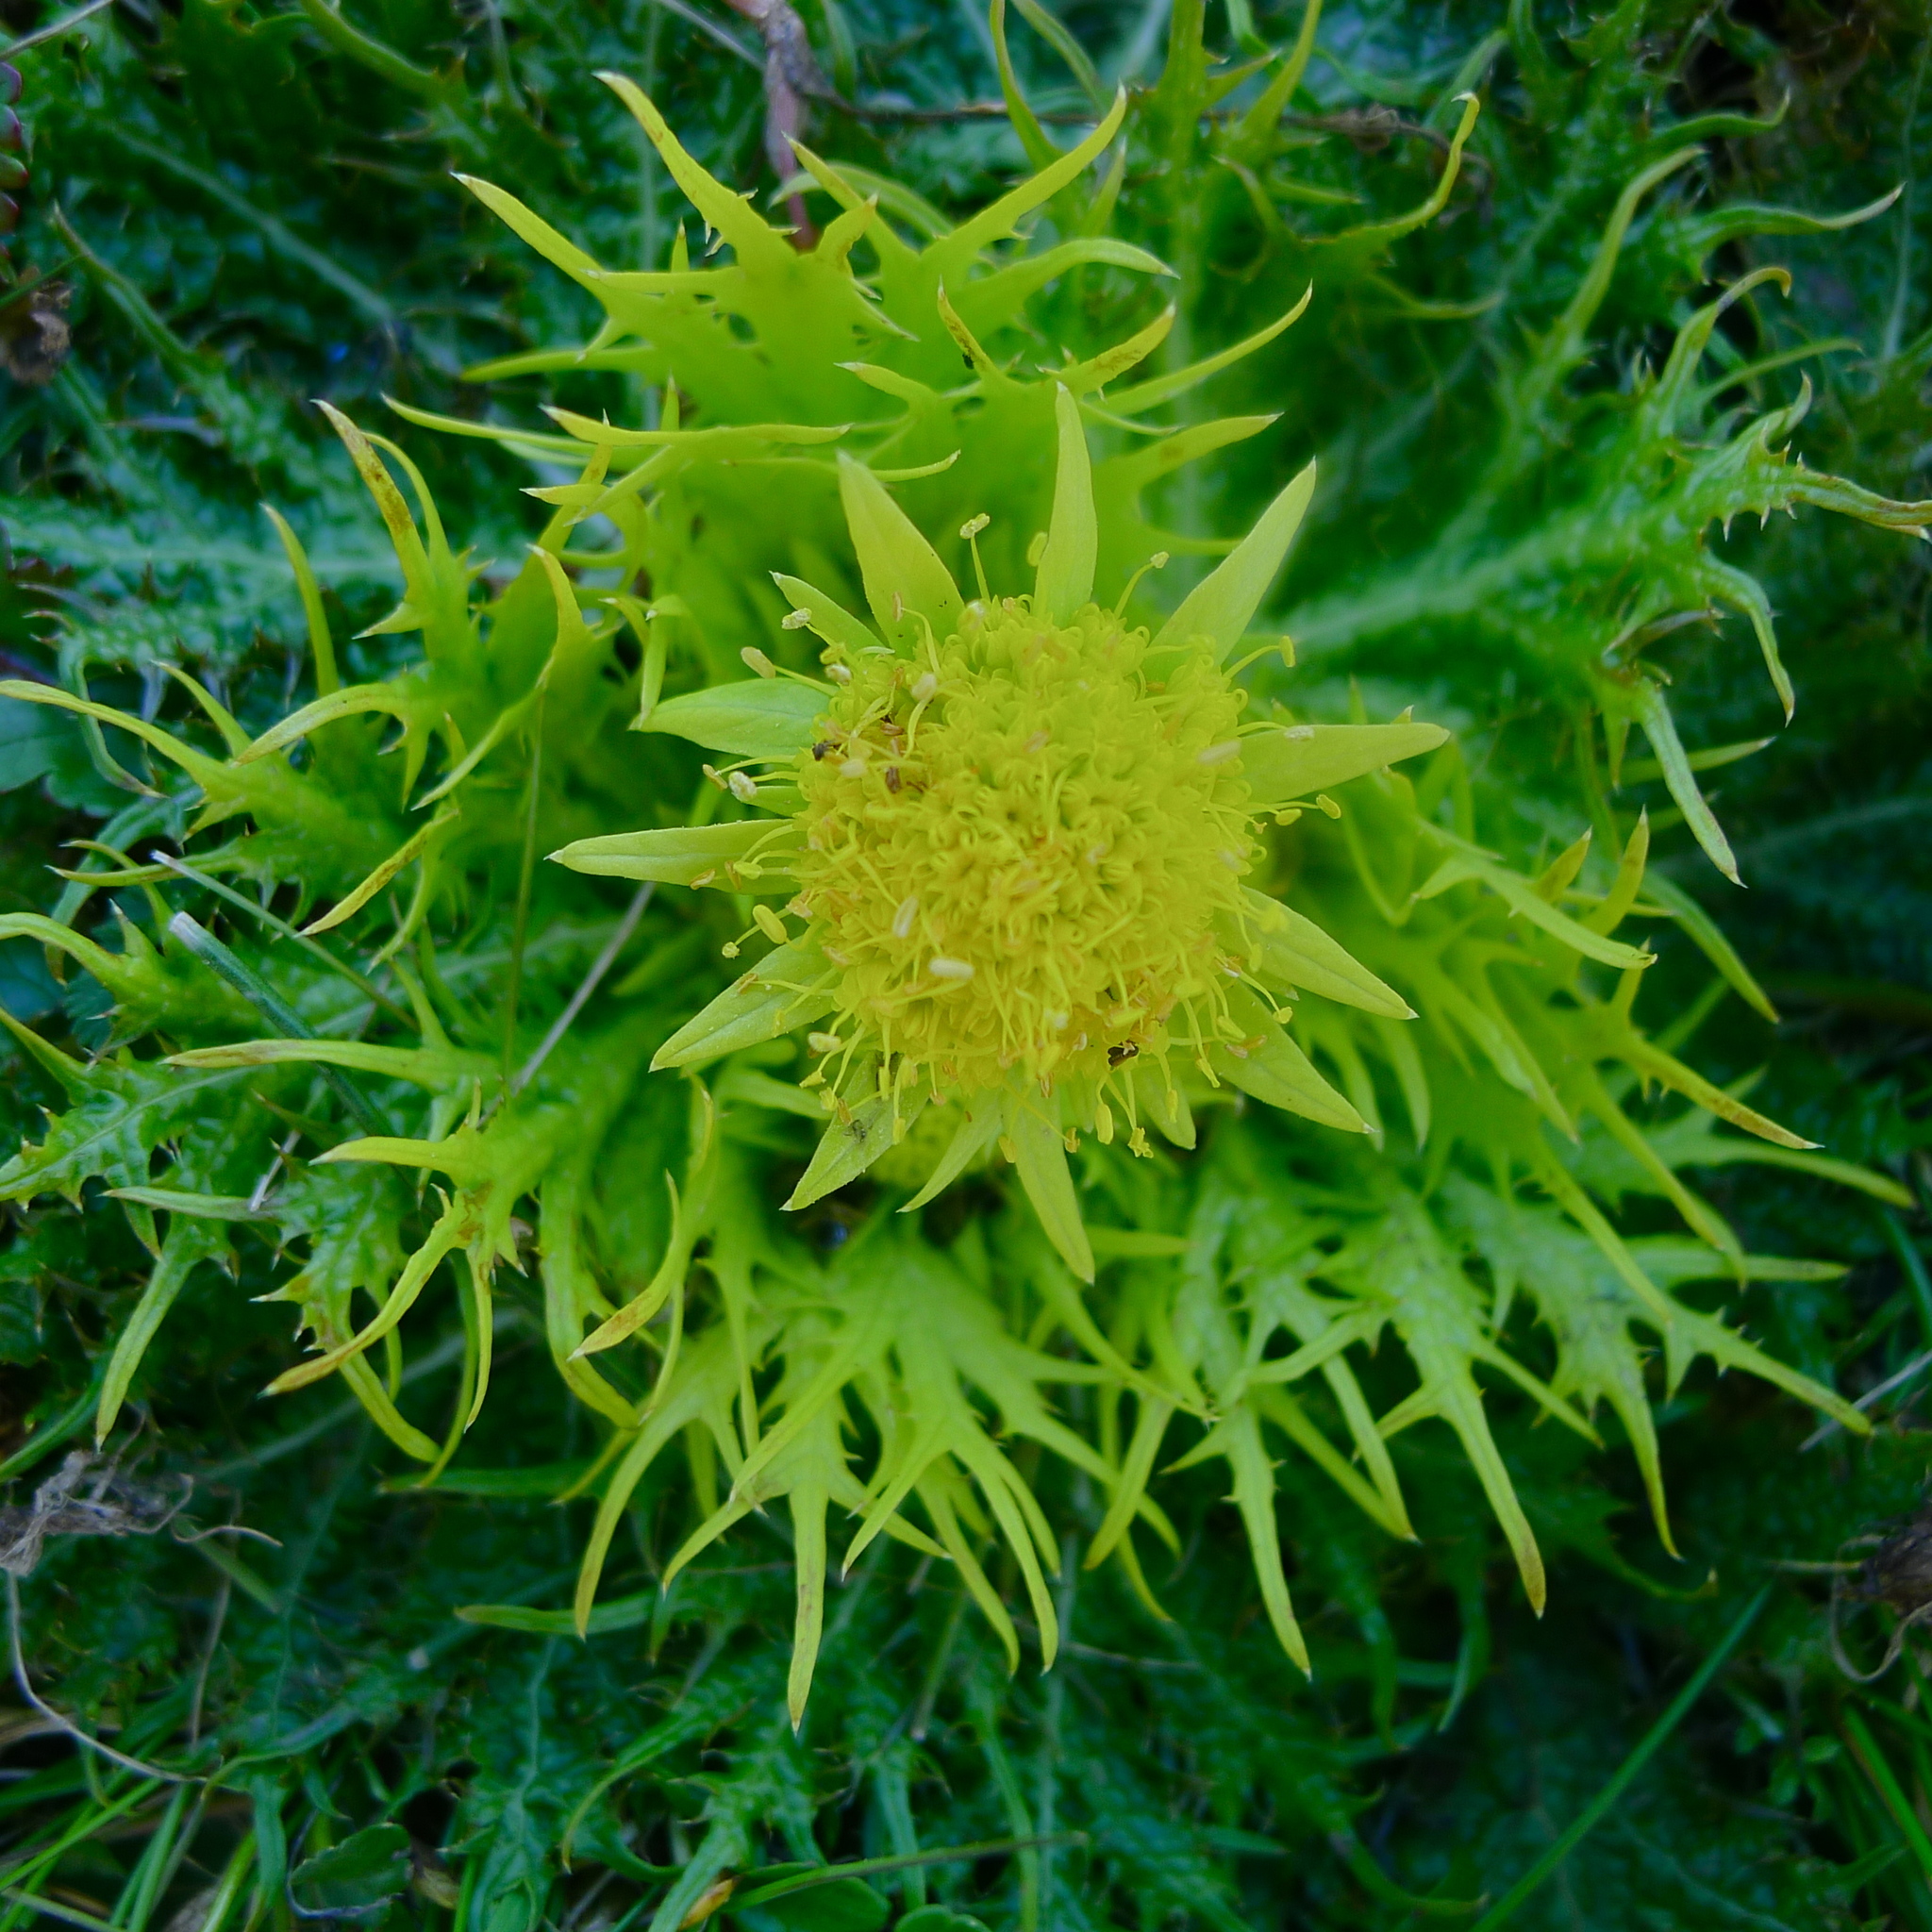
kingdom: Plantae
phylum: Tracheophyta
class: Magnoliopsida
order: Apiales
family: Apiaceae
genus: Sanicula
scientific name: Sanicula arctopoides
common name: Footsteps-of-spring
